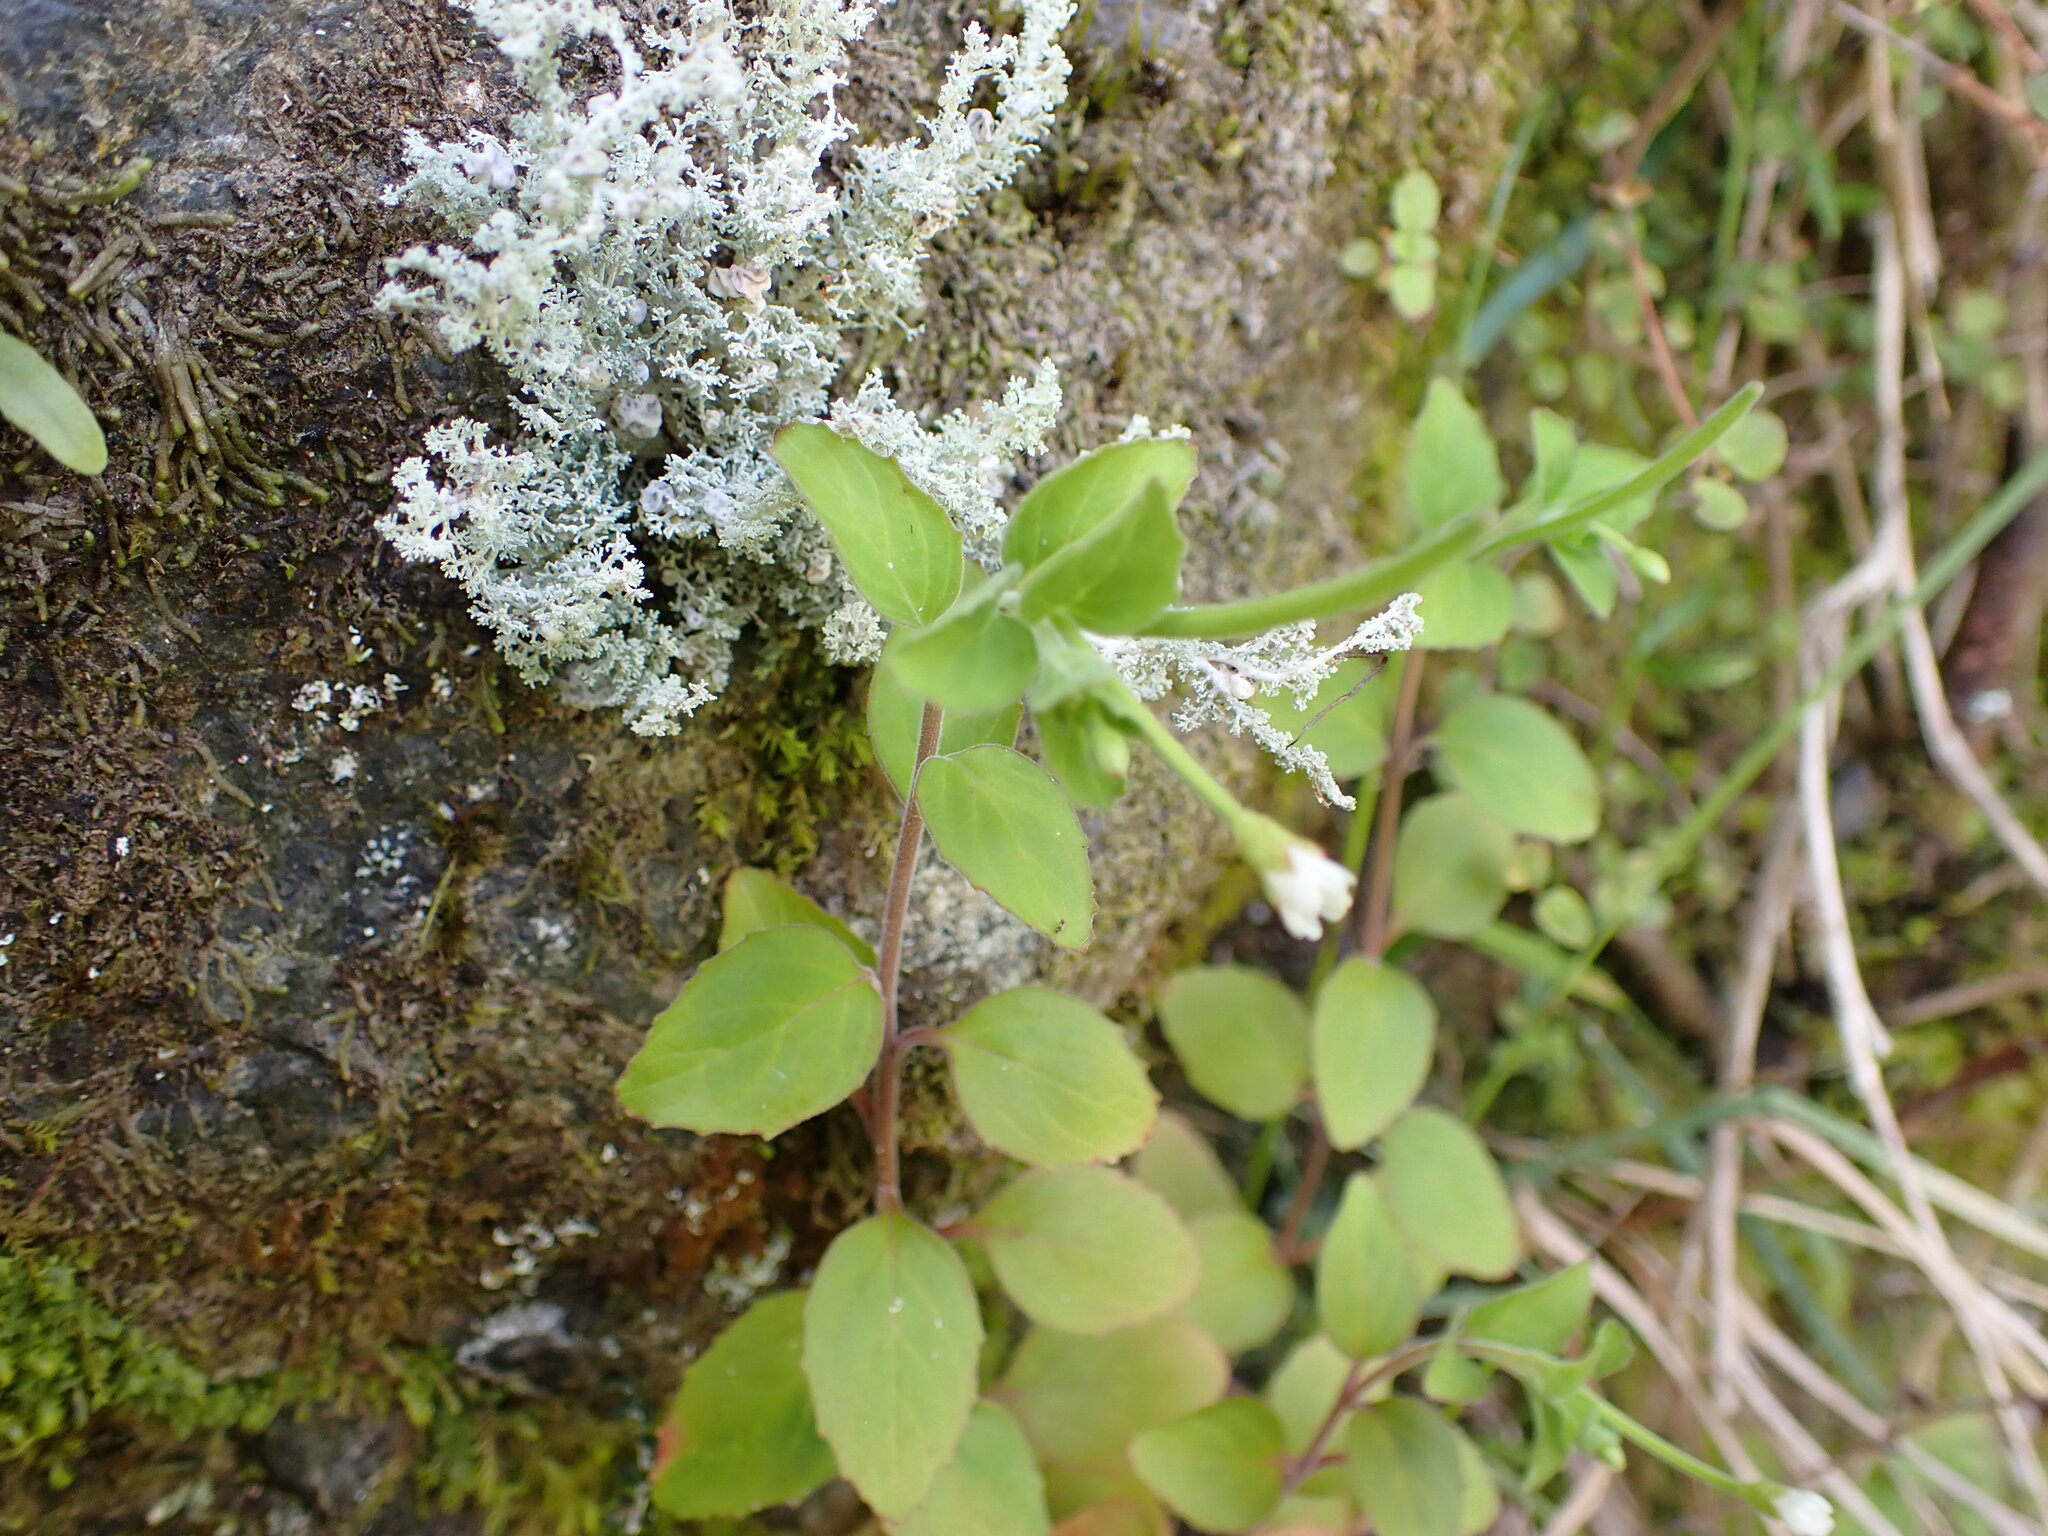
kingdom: Plantae
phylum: Tracheophyta
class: Magnoliopsida
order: Myrtales
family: Onagraceae
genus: Epilobium
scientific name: Epilobium pubens
